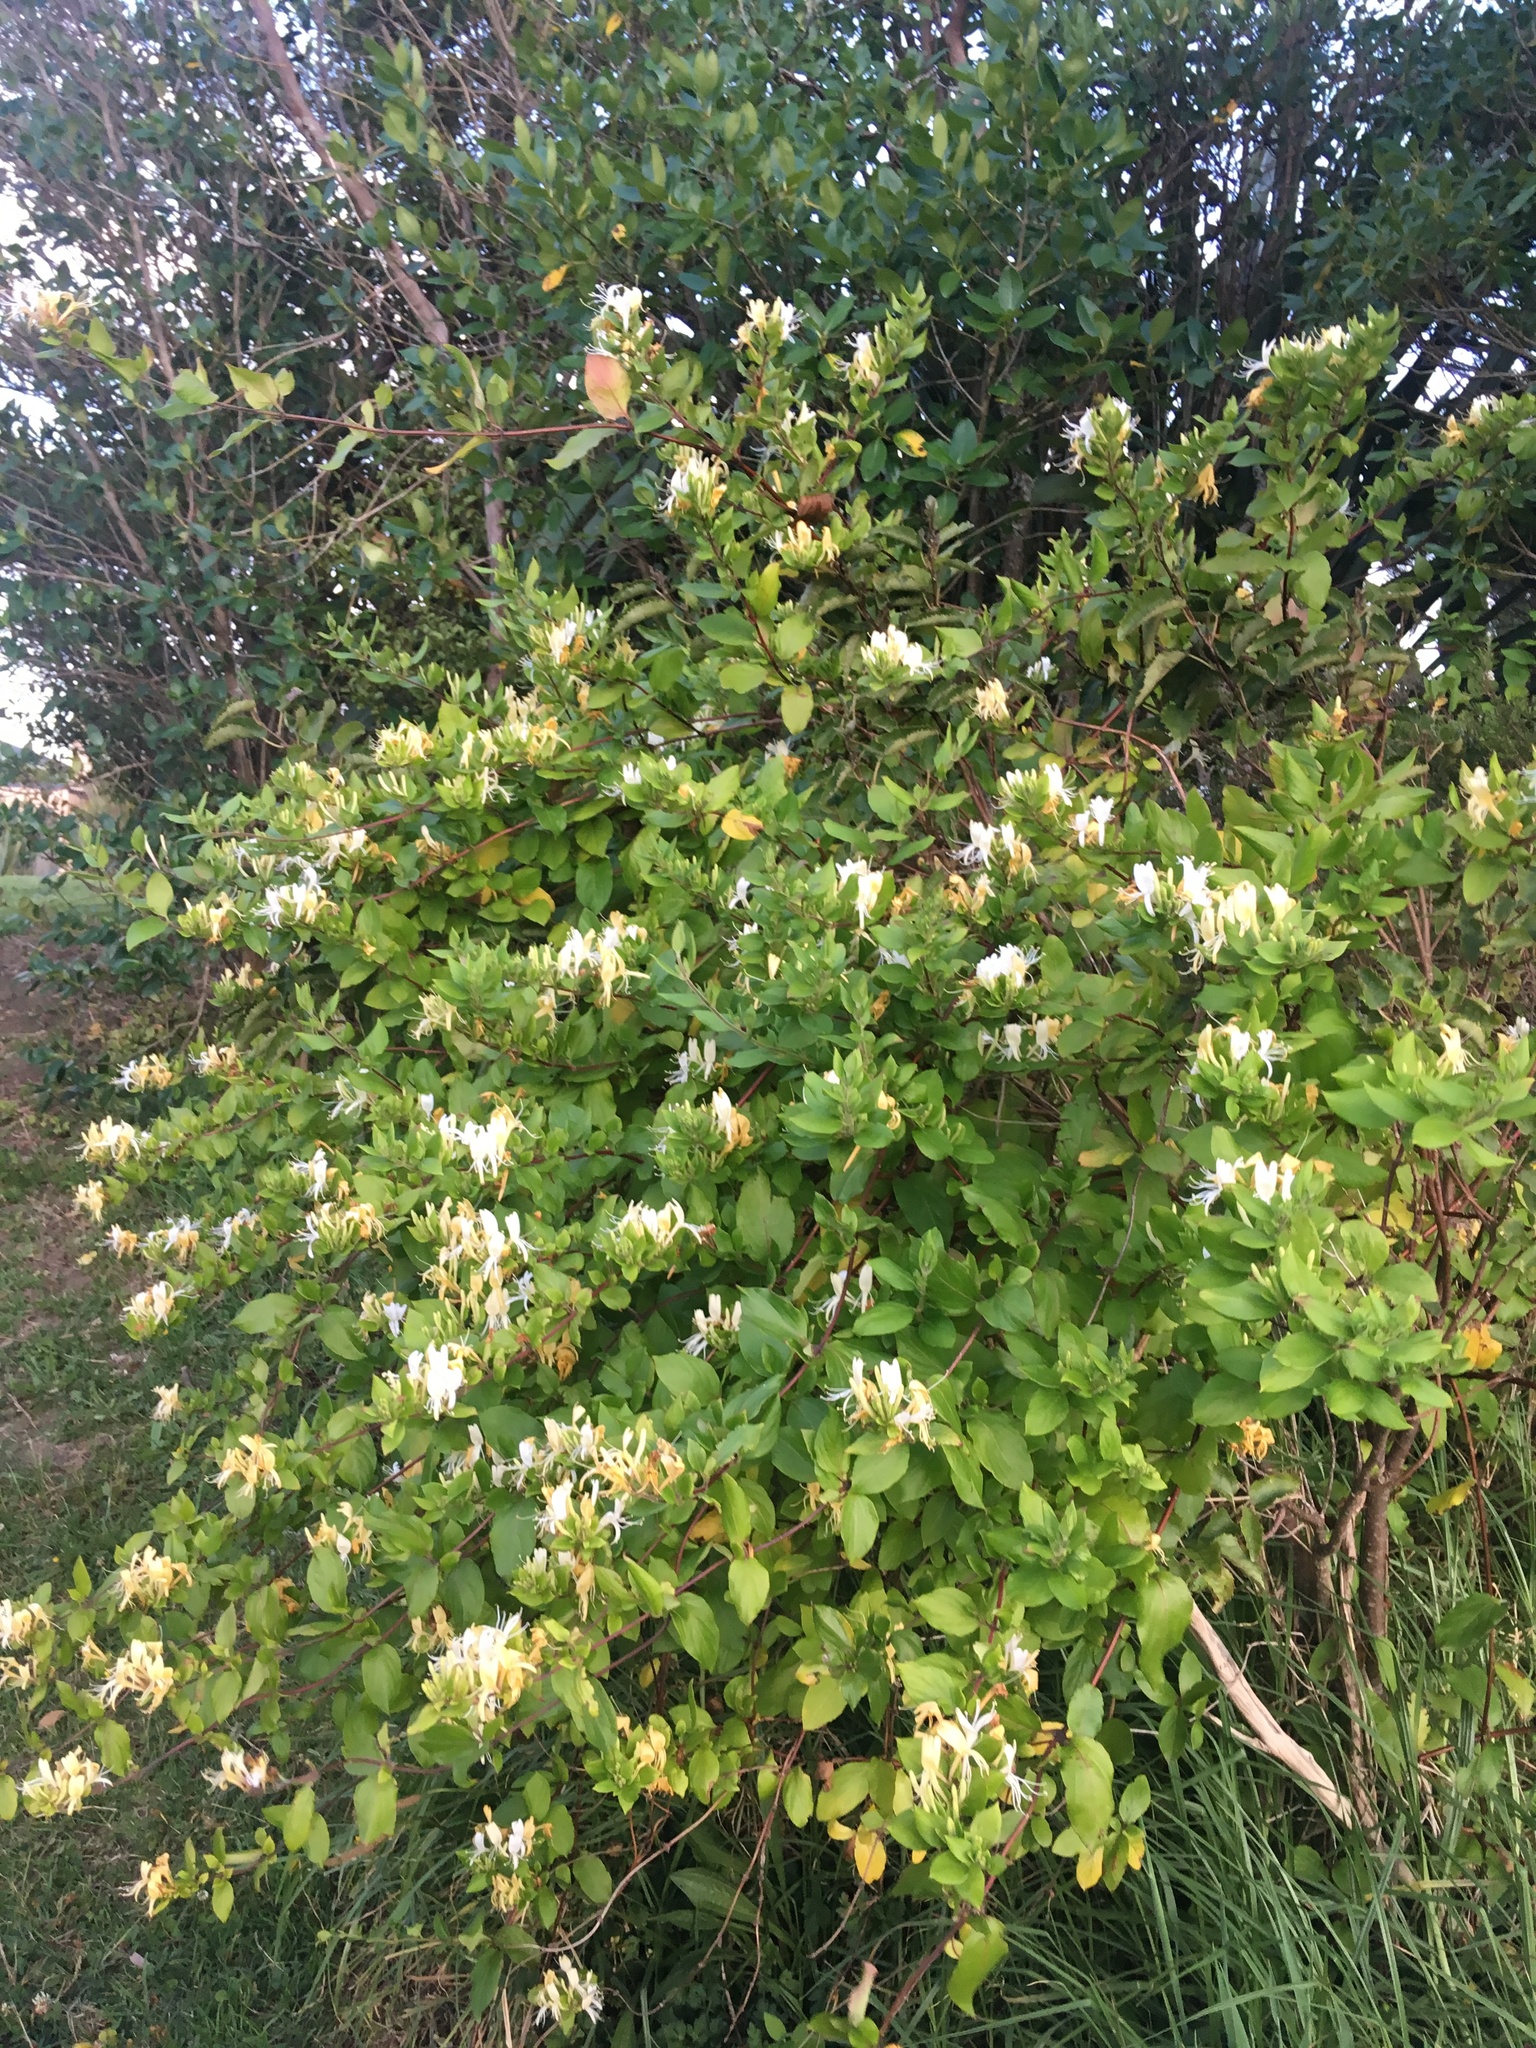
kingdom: Plantae
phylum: Tracheophyta
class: Magnoliopsida
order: Dipsacales
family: Caprifoliaceae
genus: Lonicera
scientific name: Lonicera japonica
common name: Japanese honeysuckle
